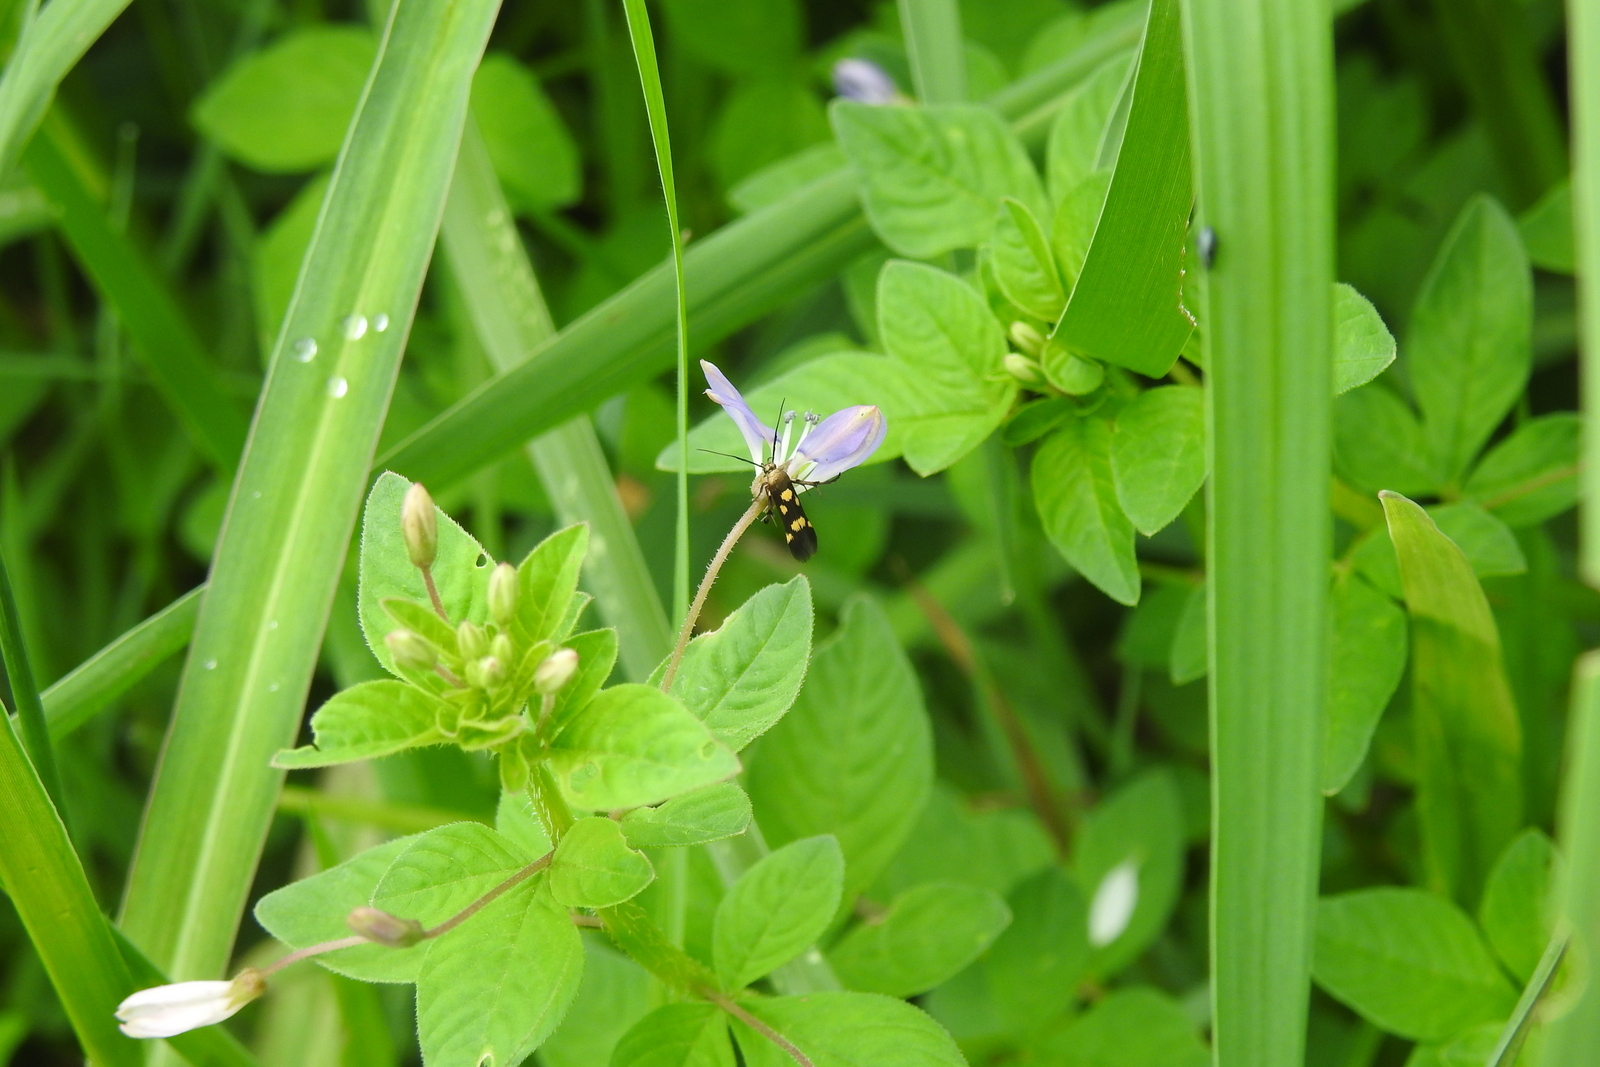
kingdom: Animalia
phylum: Arthropoda
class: Insecta
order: Lepidoptera
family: Scythrididae
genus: Eretmocera
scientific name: Eretmocera impactella
